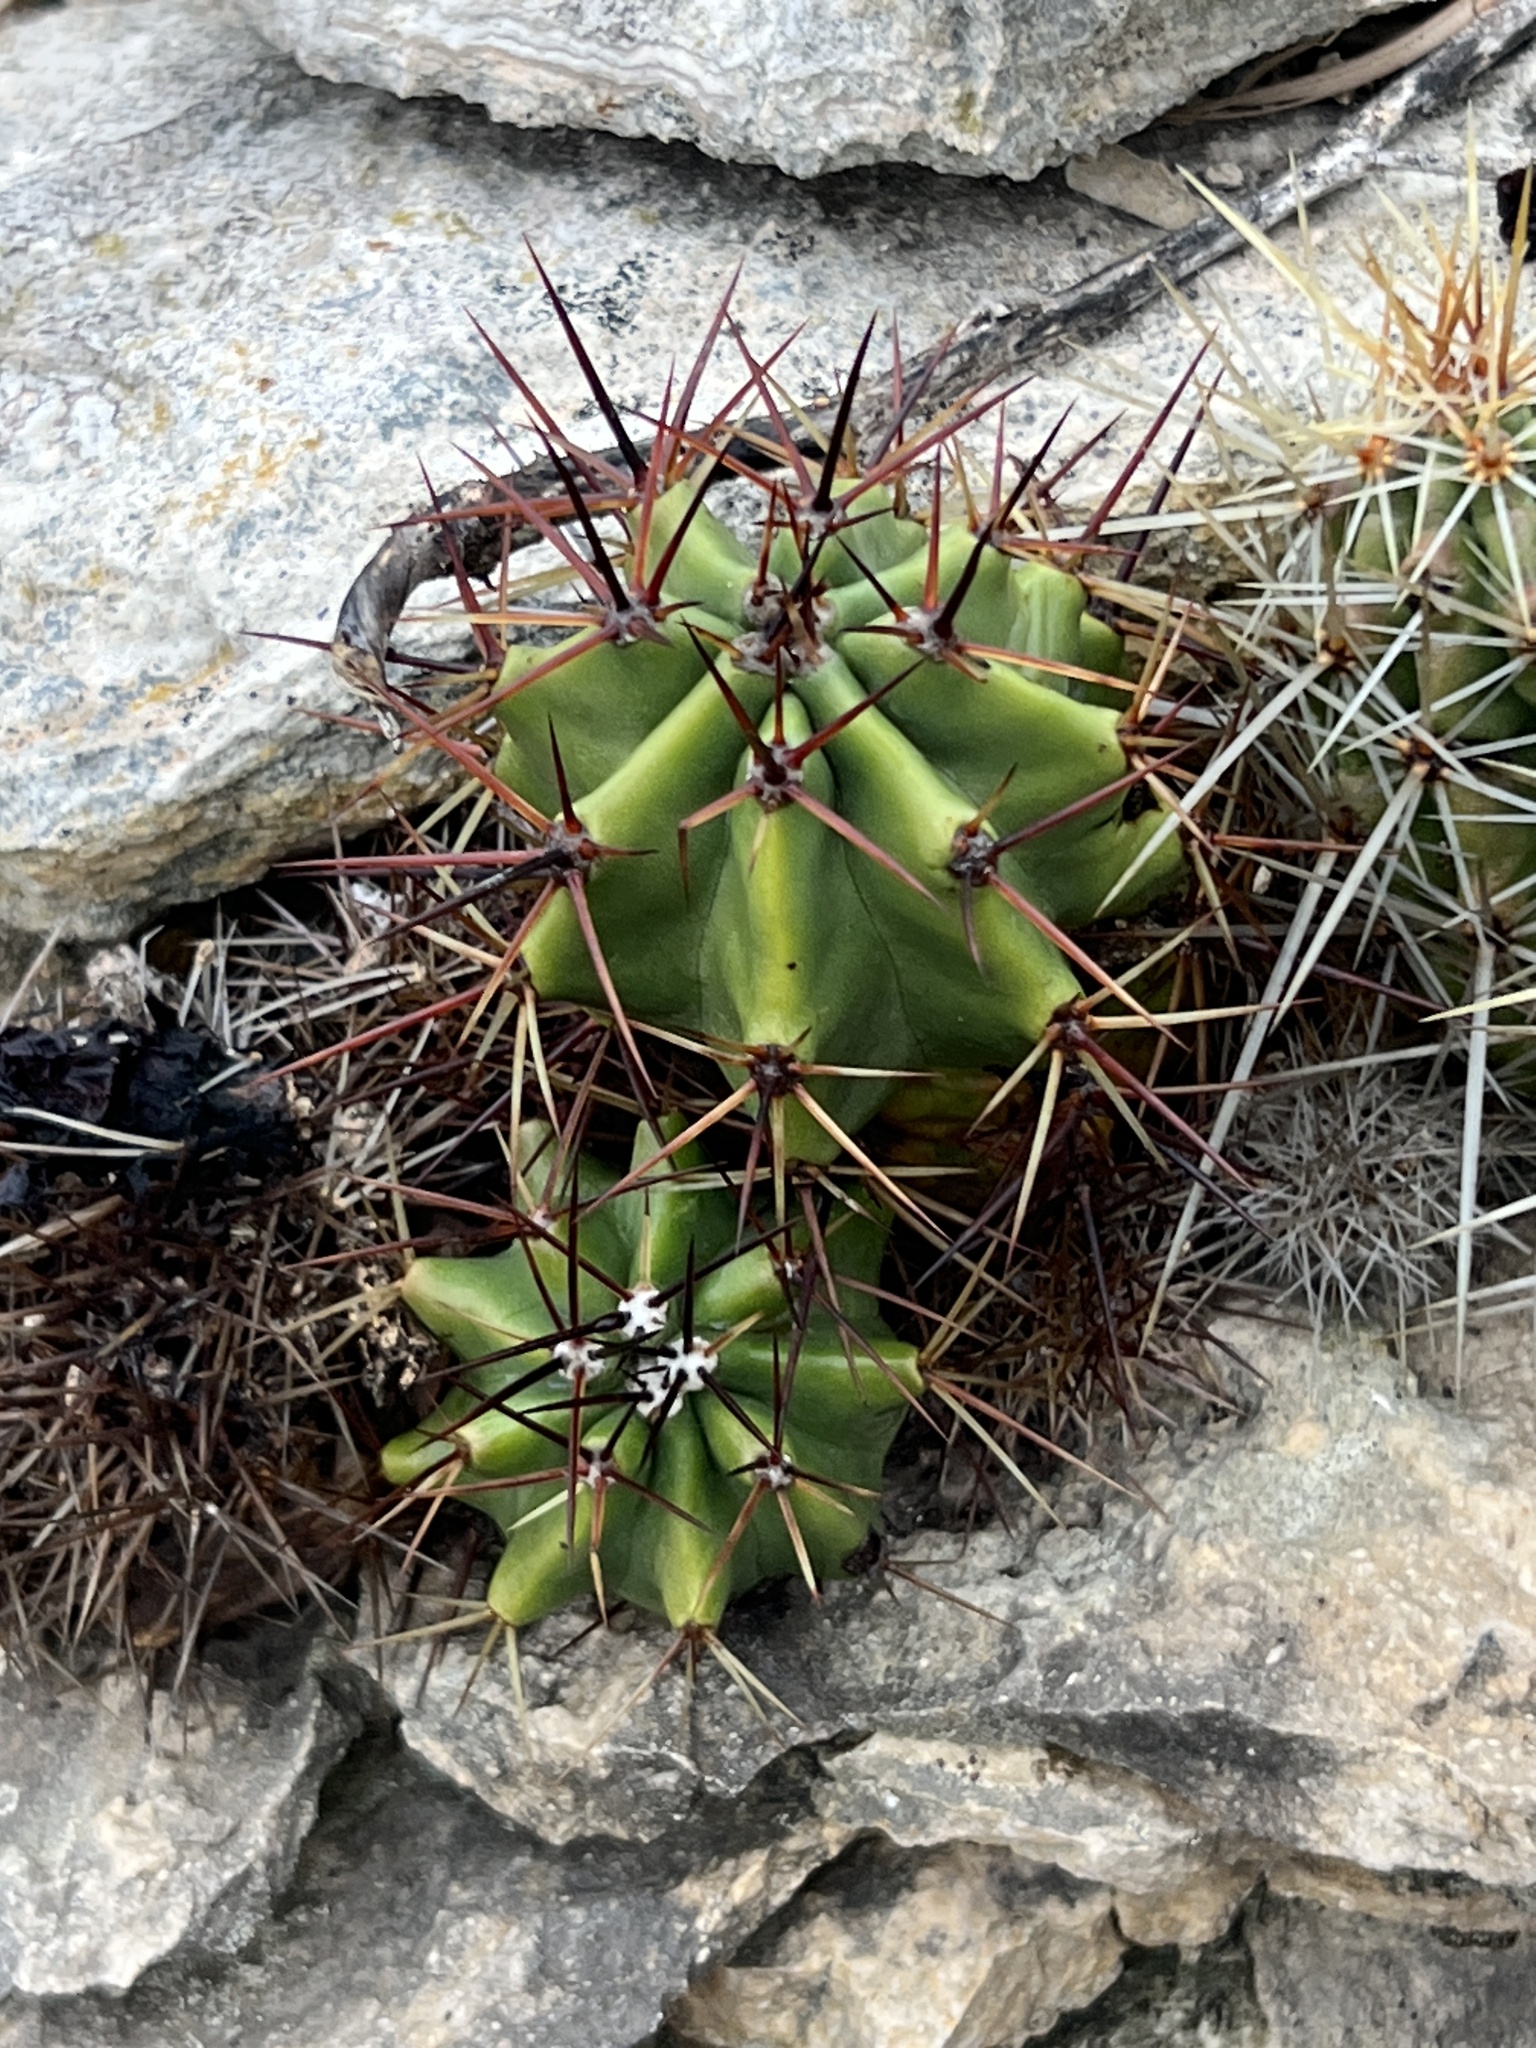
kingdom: Plantae
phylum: Tracheophyta
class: Magnoliopsida
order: Caryophyllales
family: Cactaceae
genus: Echinocereus
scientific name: Echinocereus coccineus
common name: Scarlet hedgehog cactus
